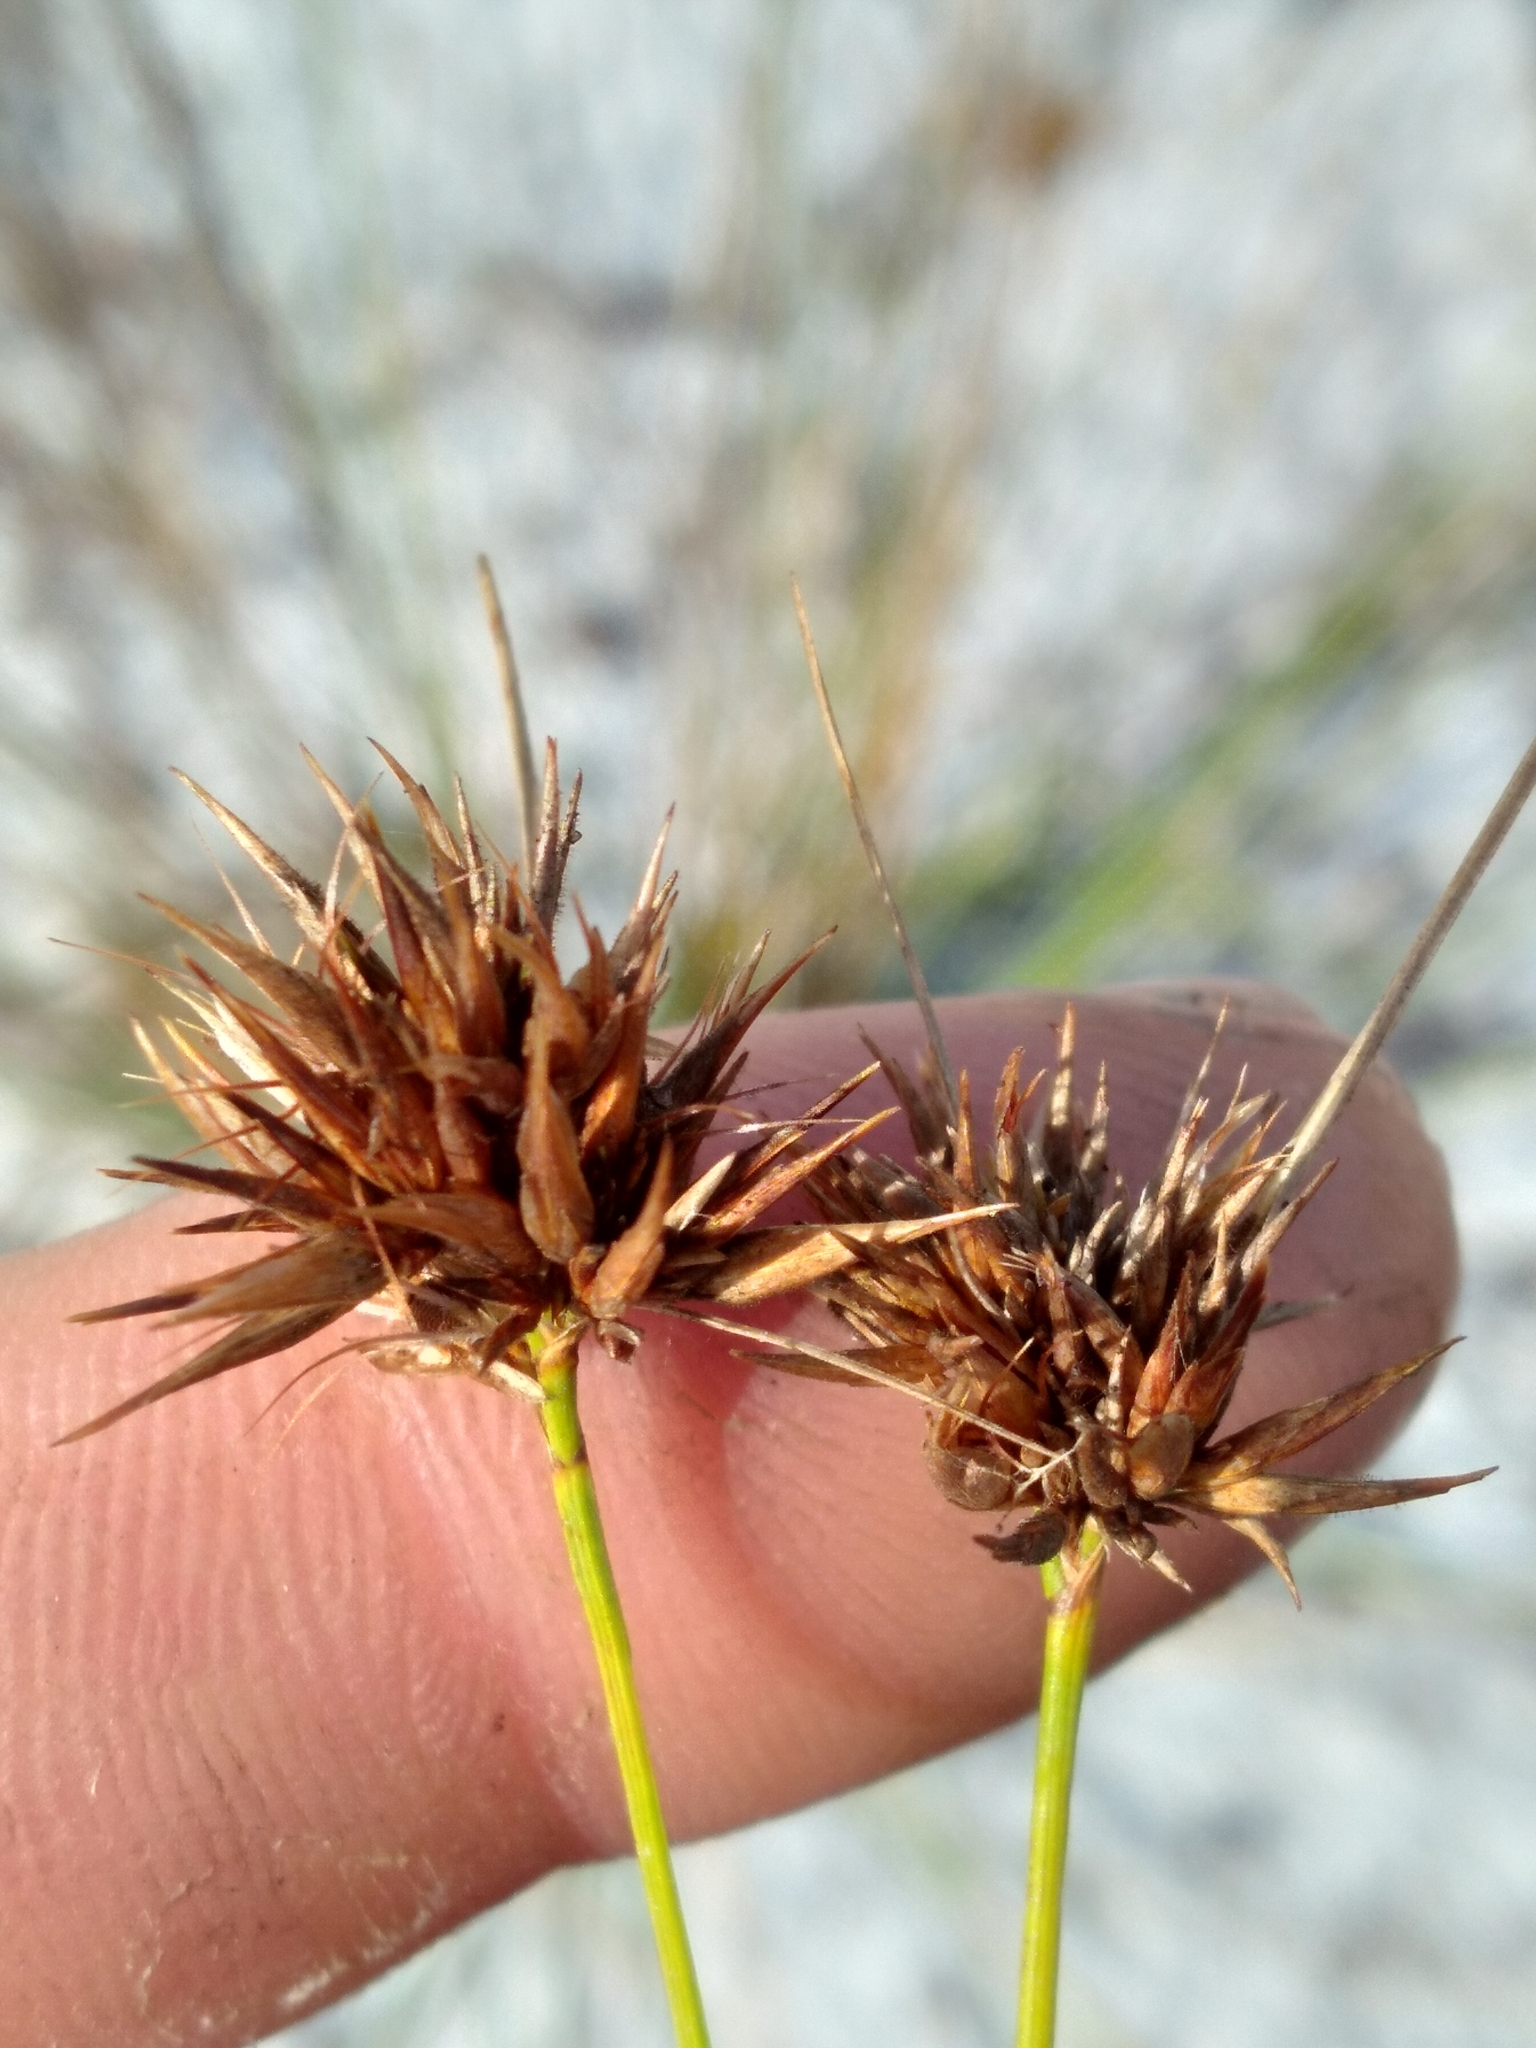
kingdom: Plantae
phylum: Tracheophyta
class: Liliopsida
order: Poales
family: Cyperaceae
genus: Rhynchospora
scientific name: Rhynchospora megaplumosa
